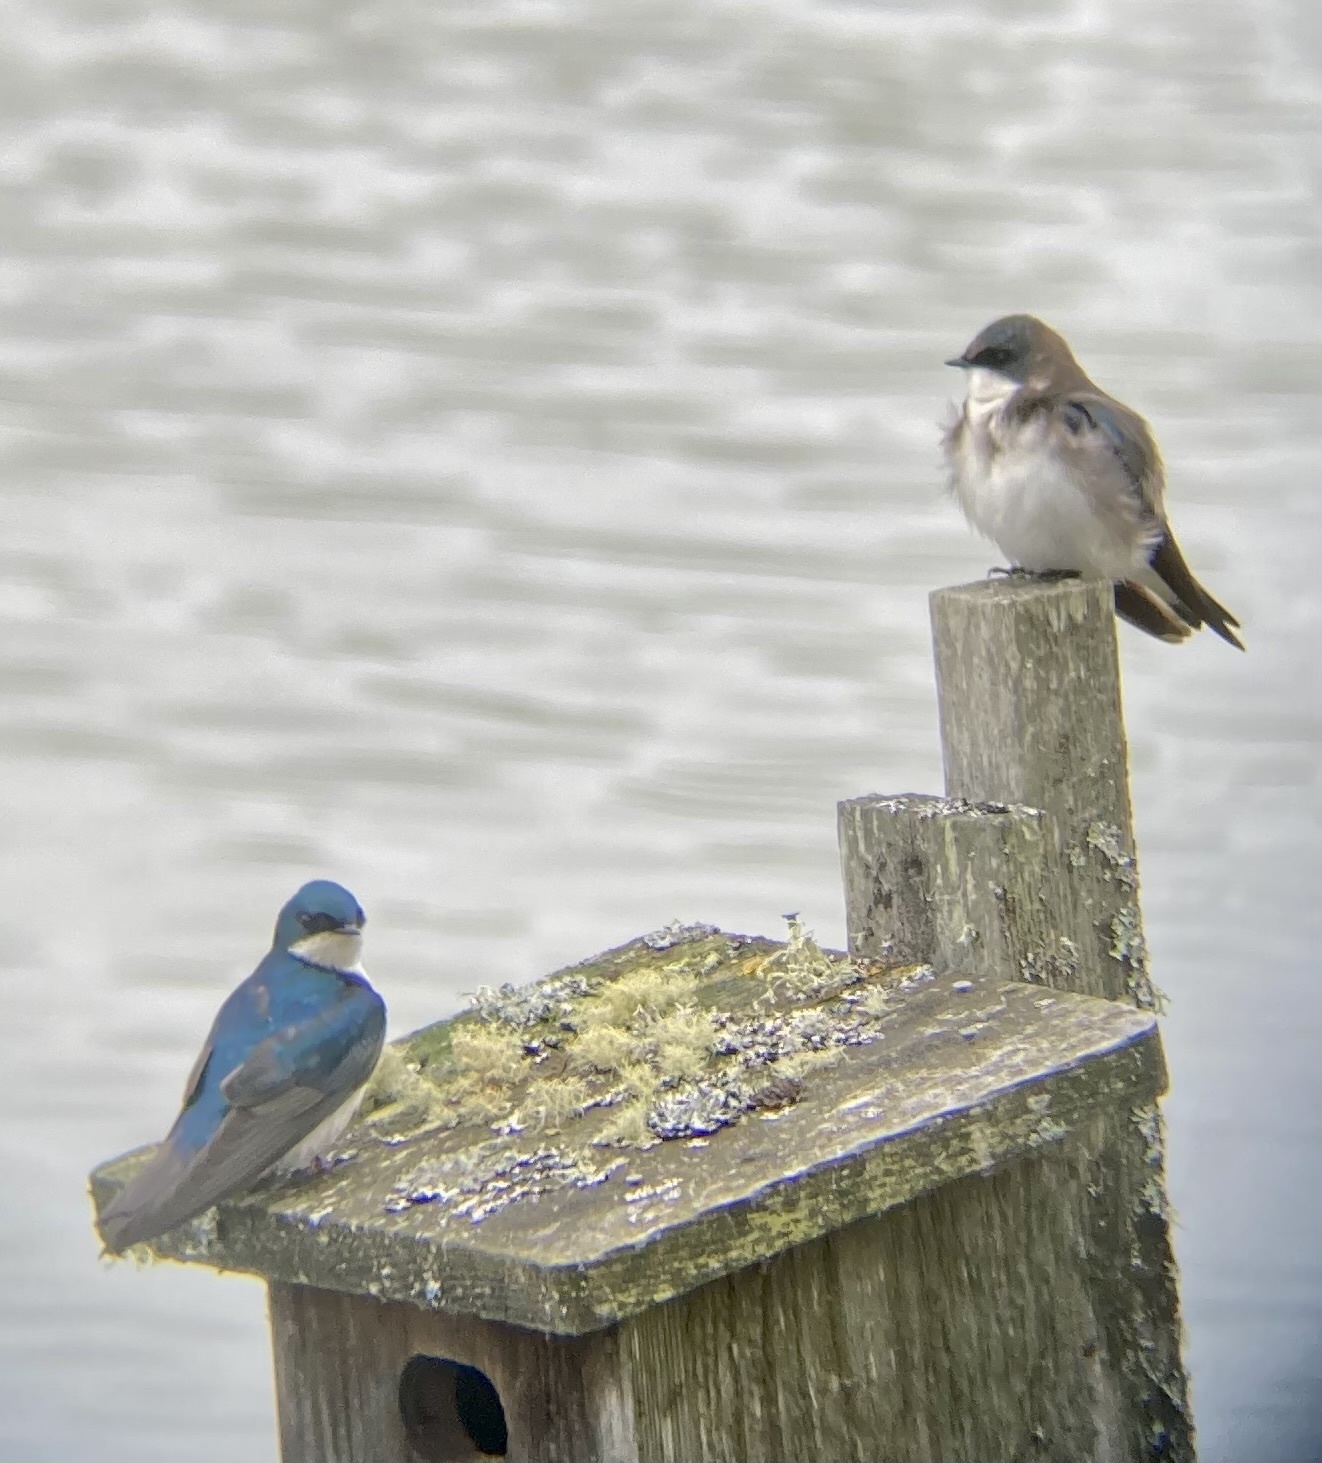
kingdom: Animalia
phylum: Chordata
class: Aves
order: Passeriformes
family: Hirundinidae
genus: Tachycineta
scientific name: Tachycineta bicolor
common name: Tree swallow
